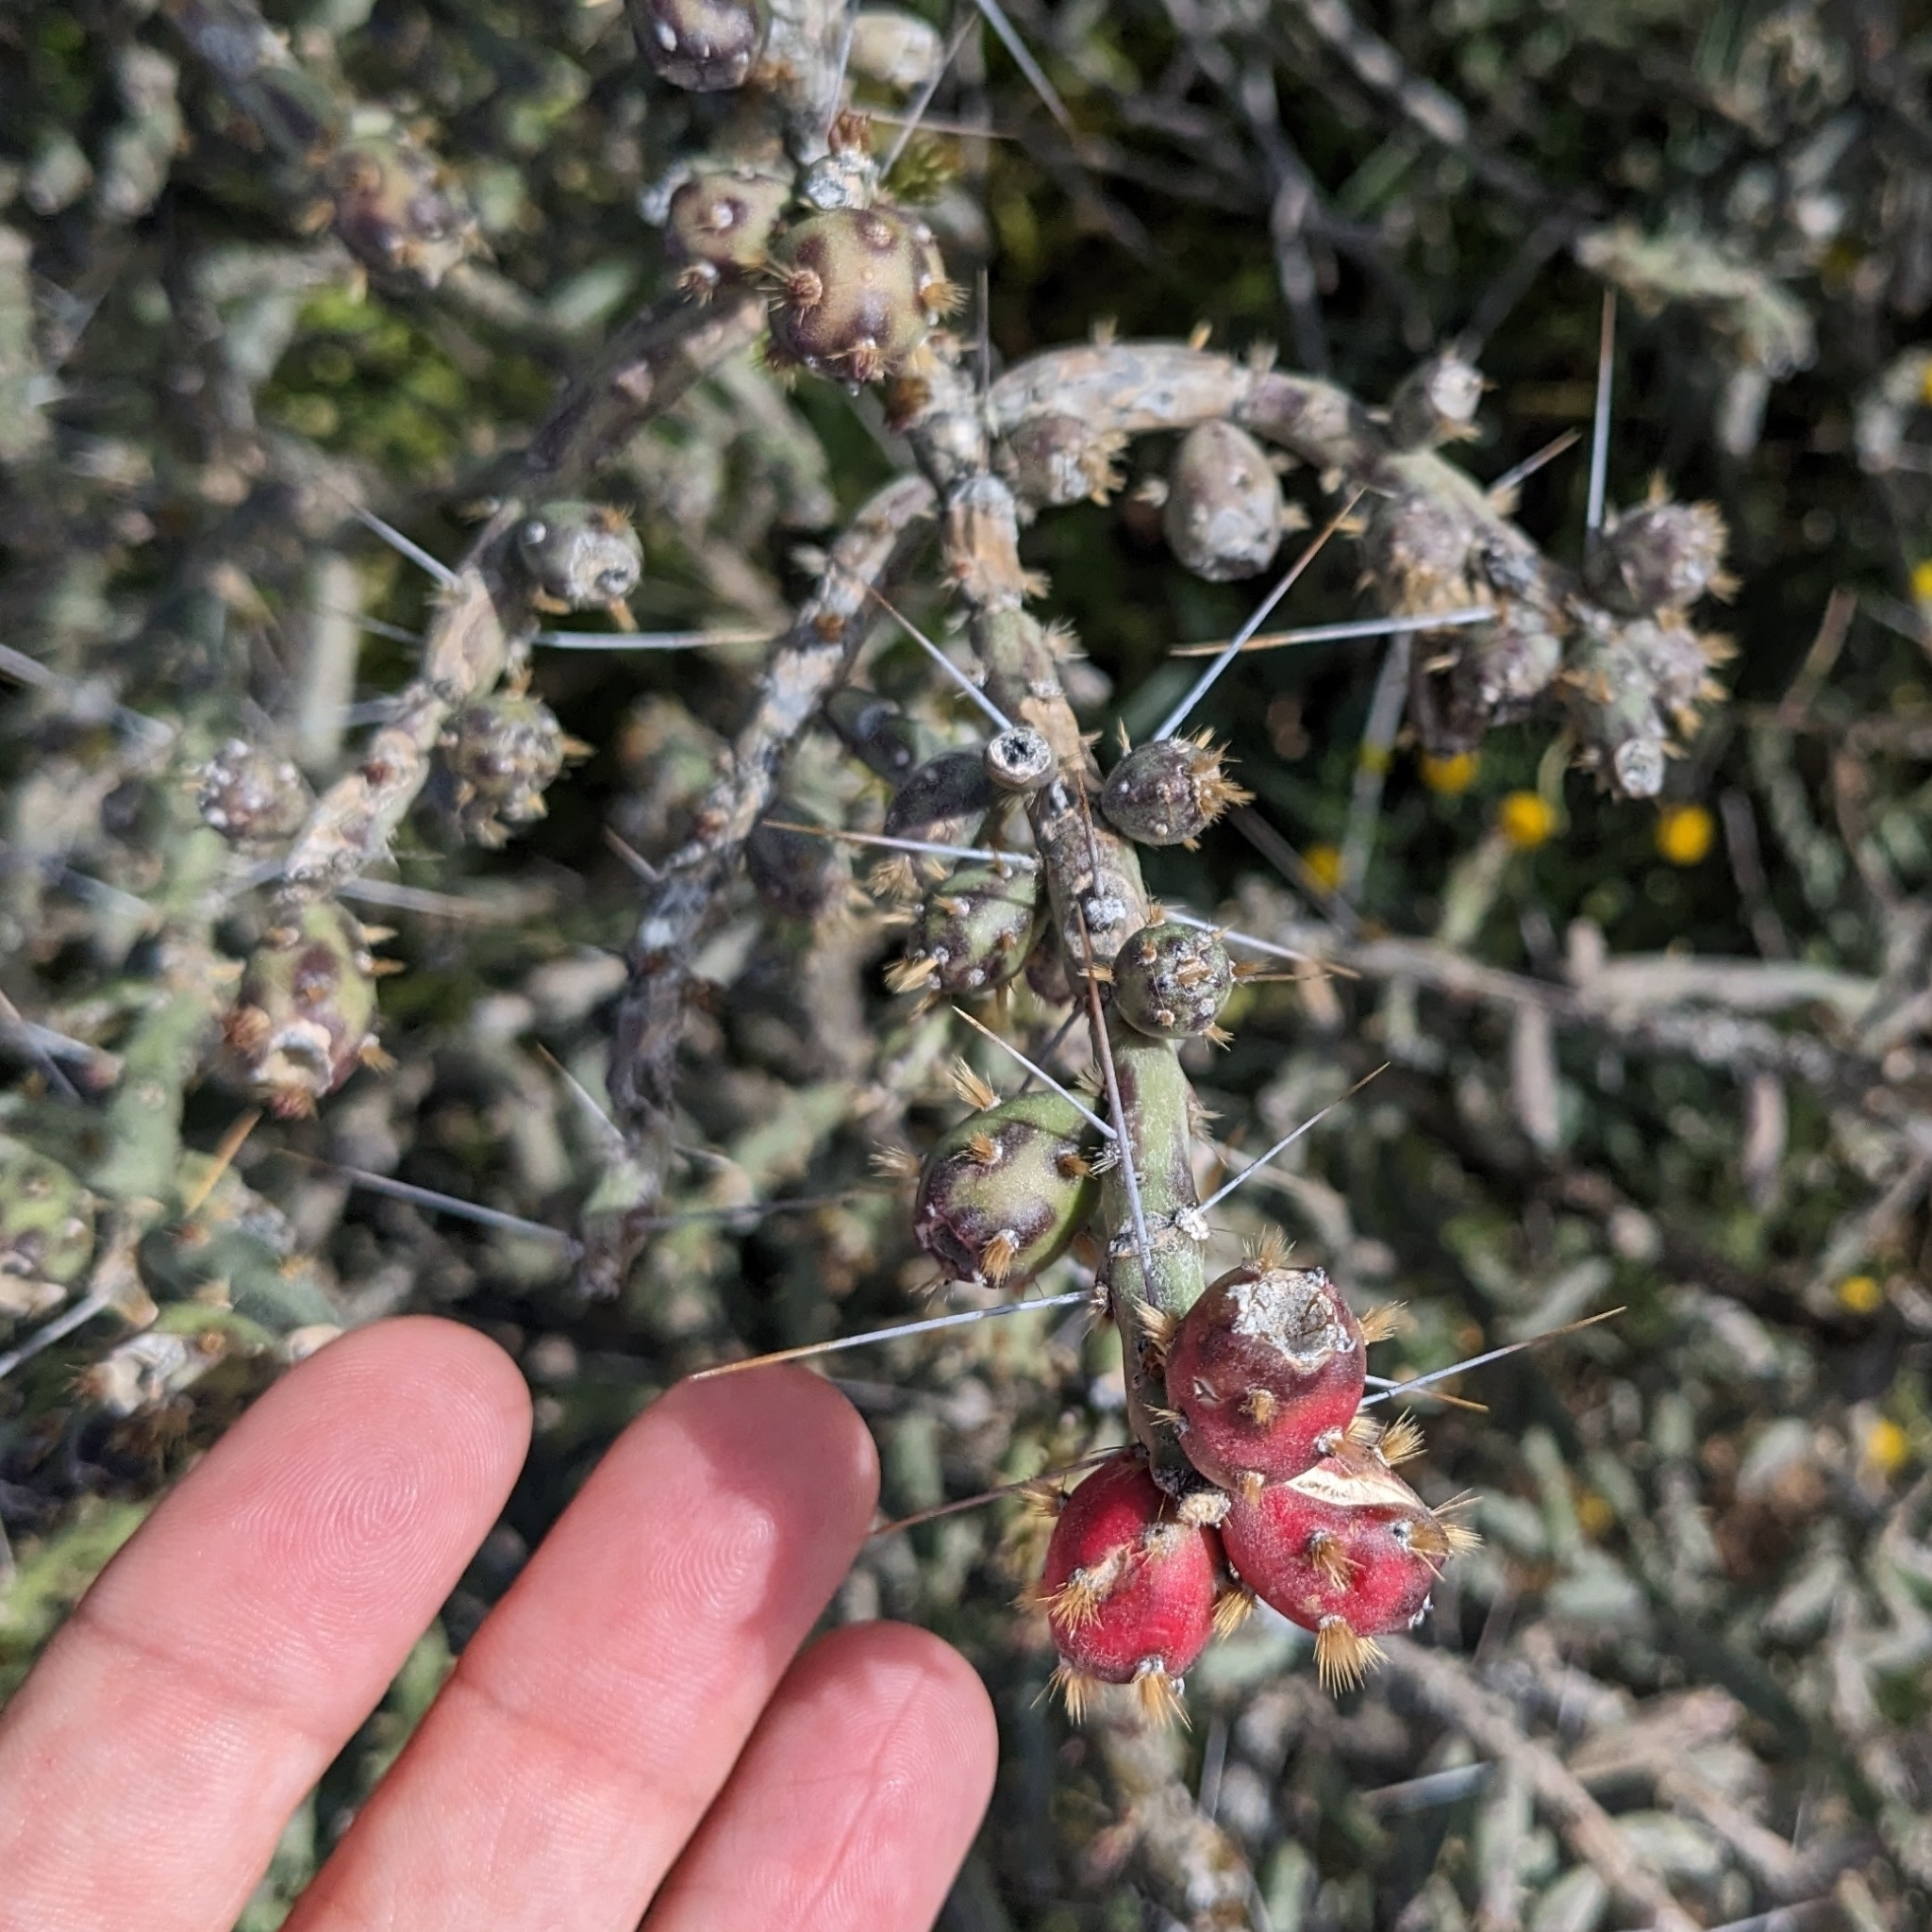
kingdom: Plantae
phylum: Tracheophyta
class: Magnoliopsida
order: Caryophyllales
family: Cactaceae
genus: Cylindropuntia
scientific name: Cylindropuntia leptocaulis
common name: Christmas cactus
